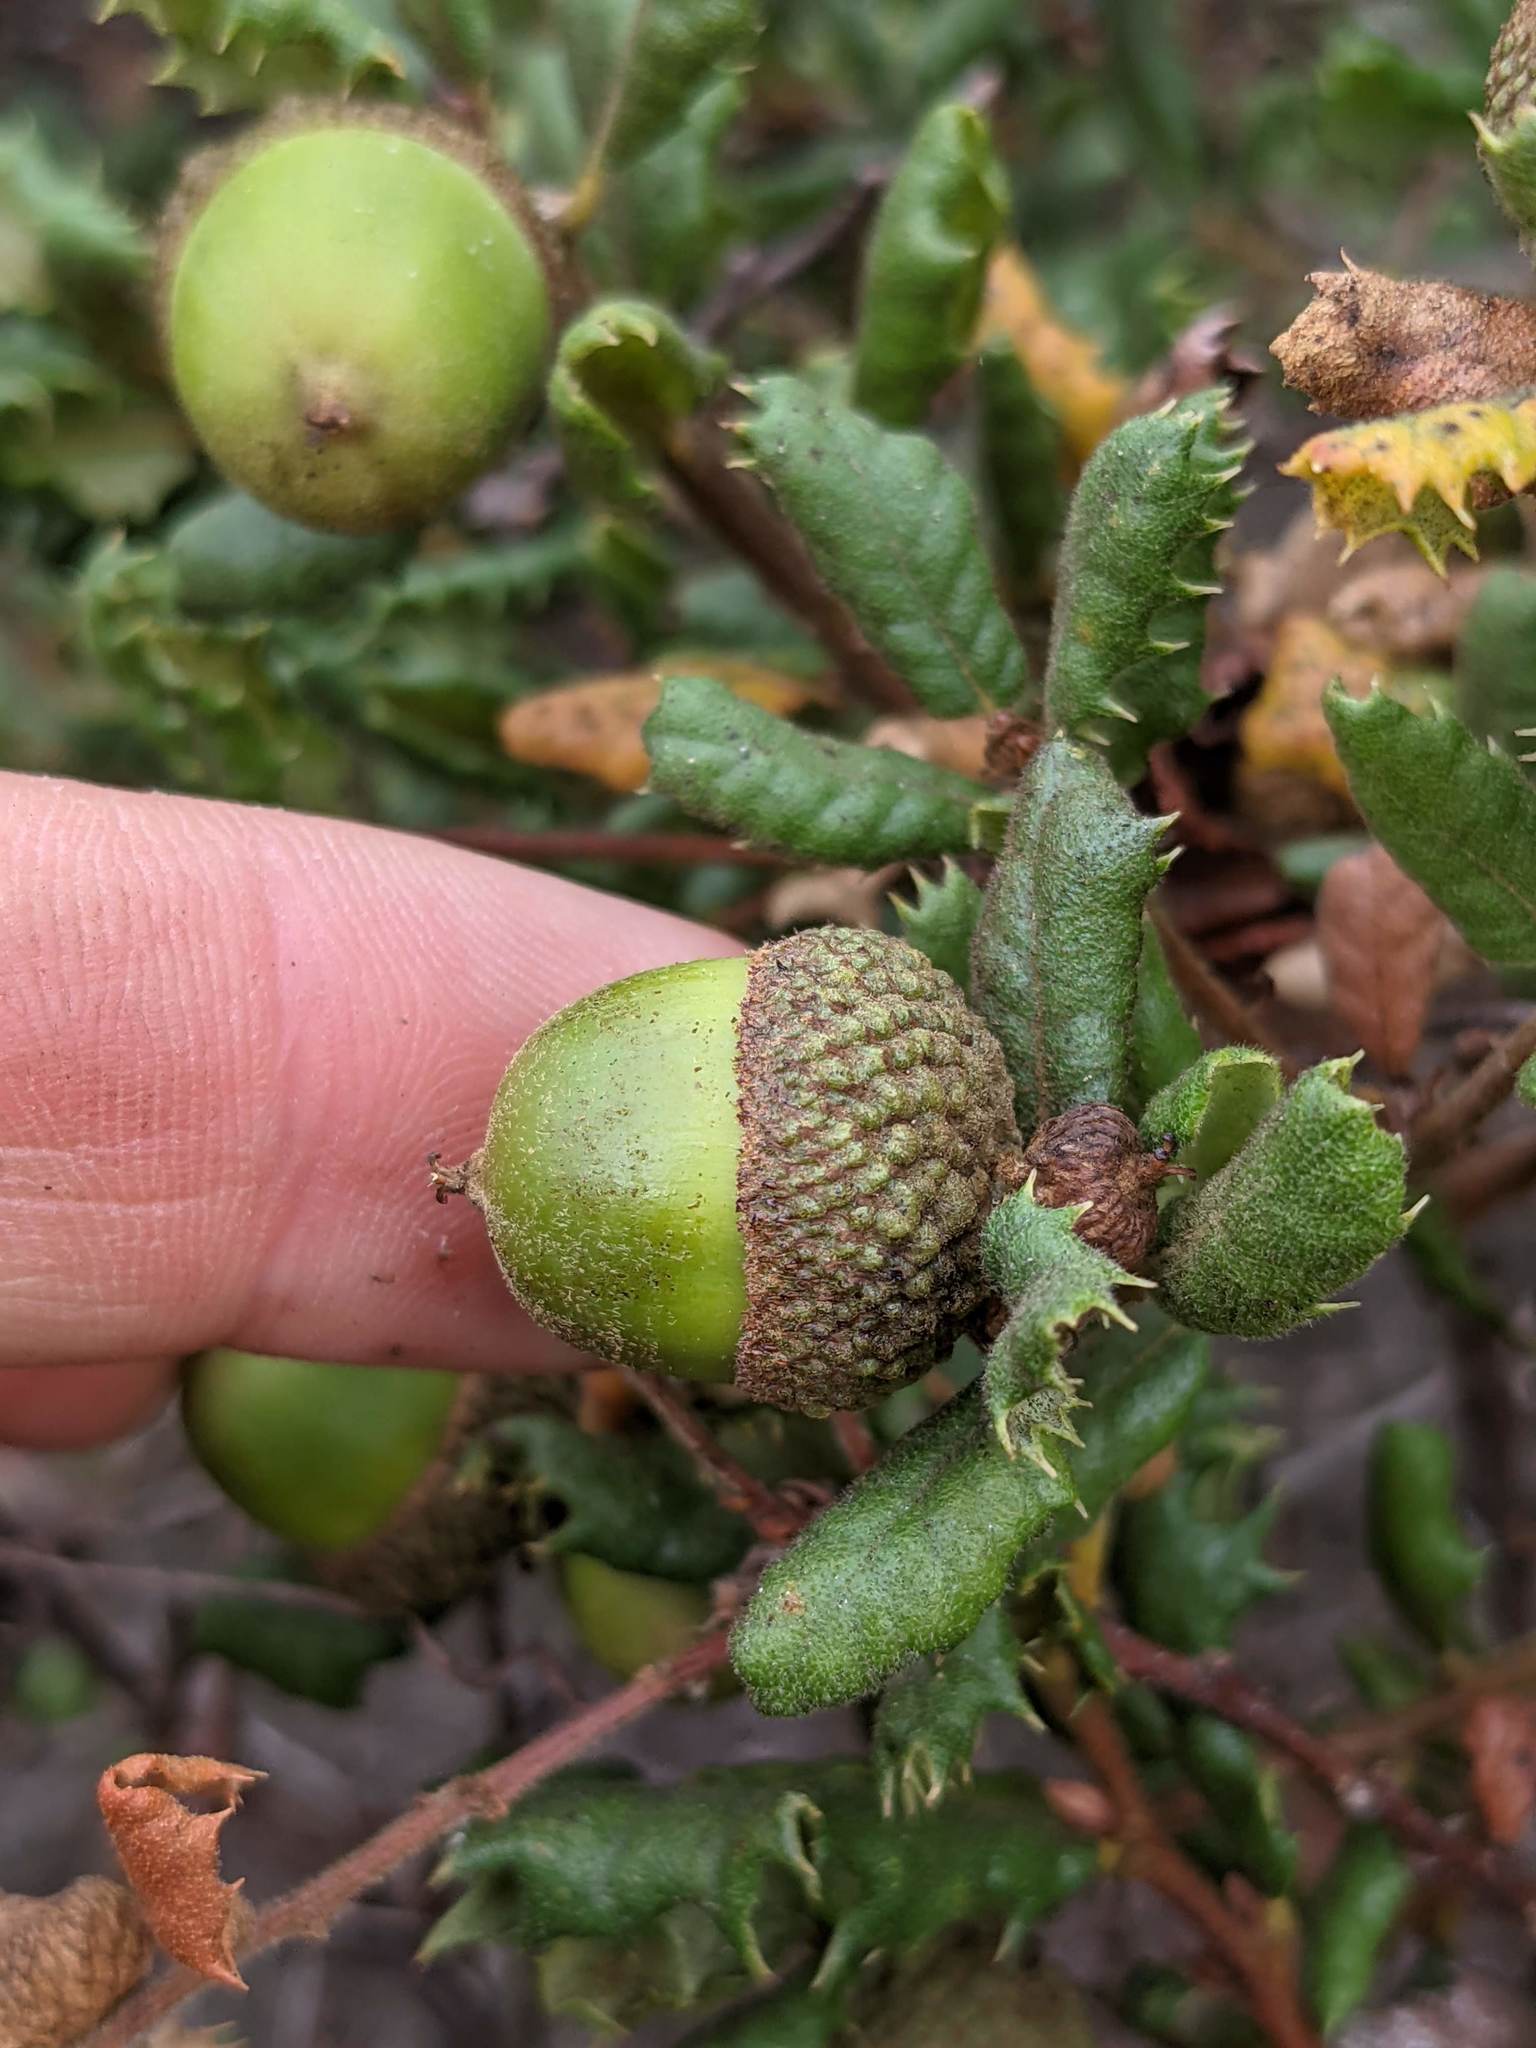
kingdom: Plantae
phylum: Tracheophyta
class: Magnoliopsida
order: Fagales
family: Fagaceae
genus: Quercus
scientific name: Quercus durata
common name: Leather oak
